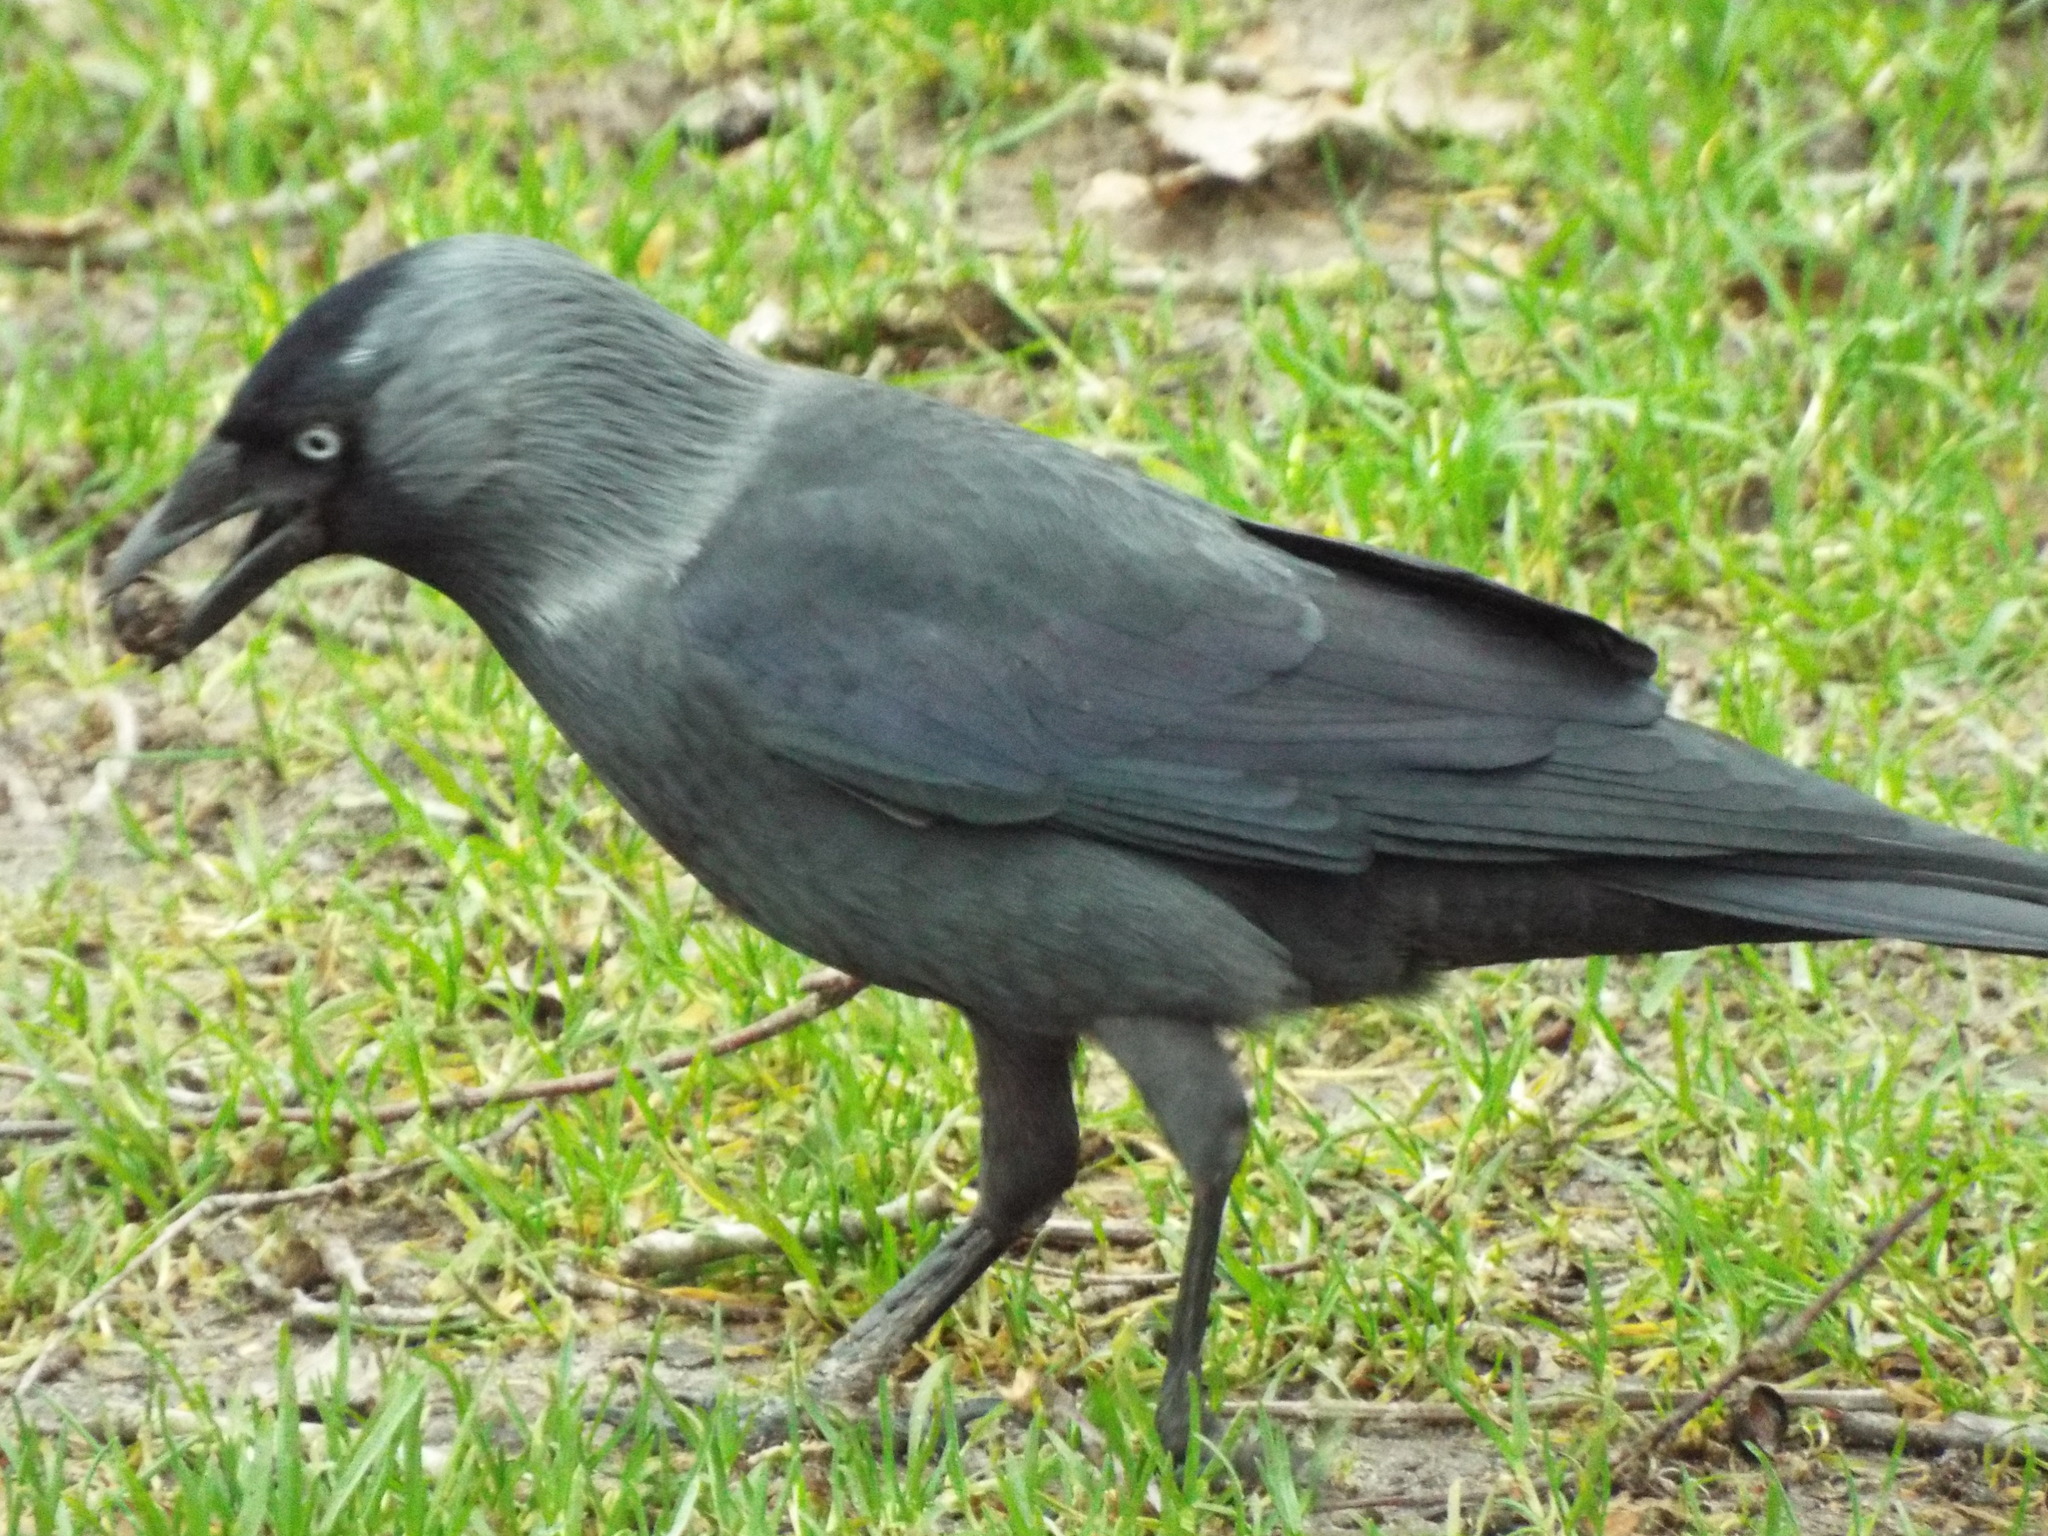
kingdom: Animalia
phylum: Chordata
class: Aves
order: Passeriformes
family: Corvidae
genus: Coloeus
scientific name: Coloeus monedula
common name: Western jackdaw
